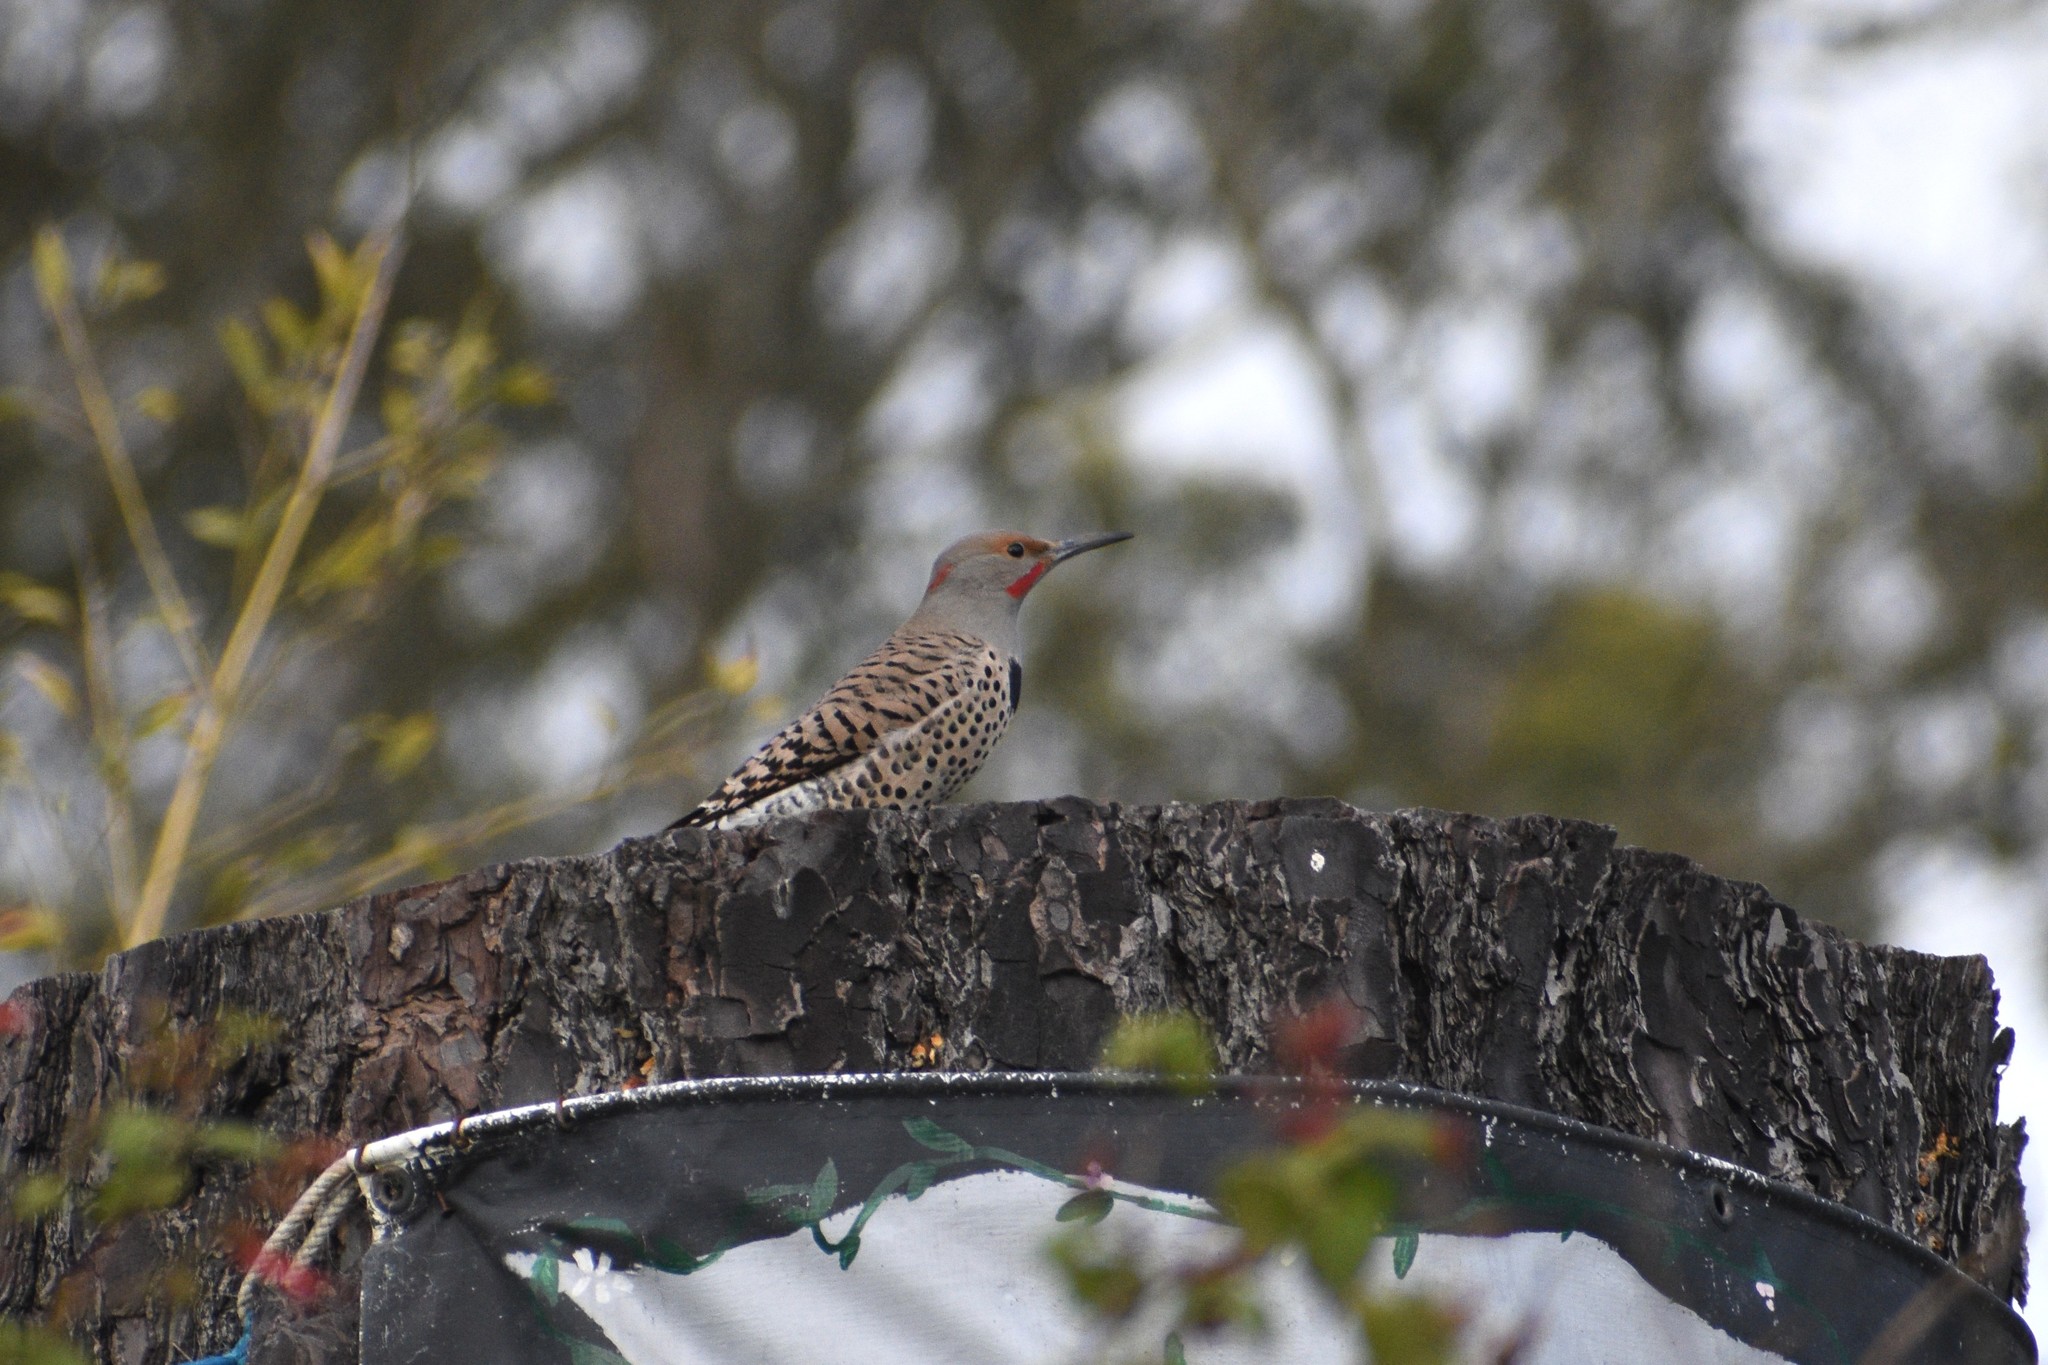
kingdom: Animalia
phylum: Chordata
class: Aves
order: Piciformes
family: Picidae
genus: Colaptes
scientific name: Colaptes auratus
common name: Northern flicker
